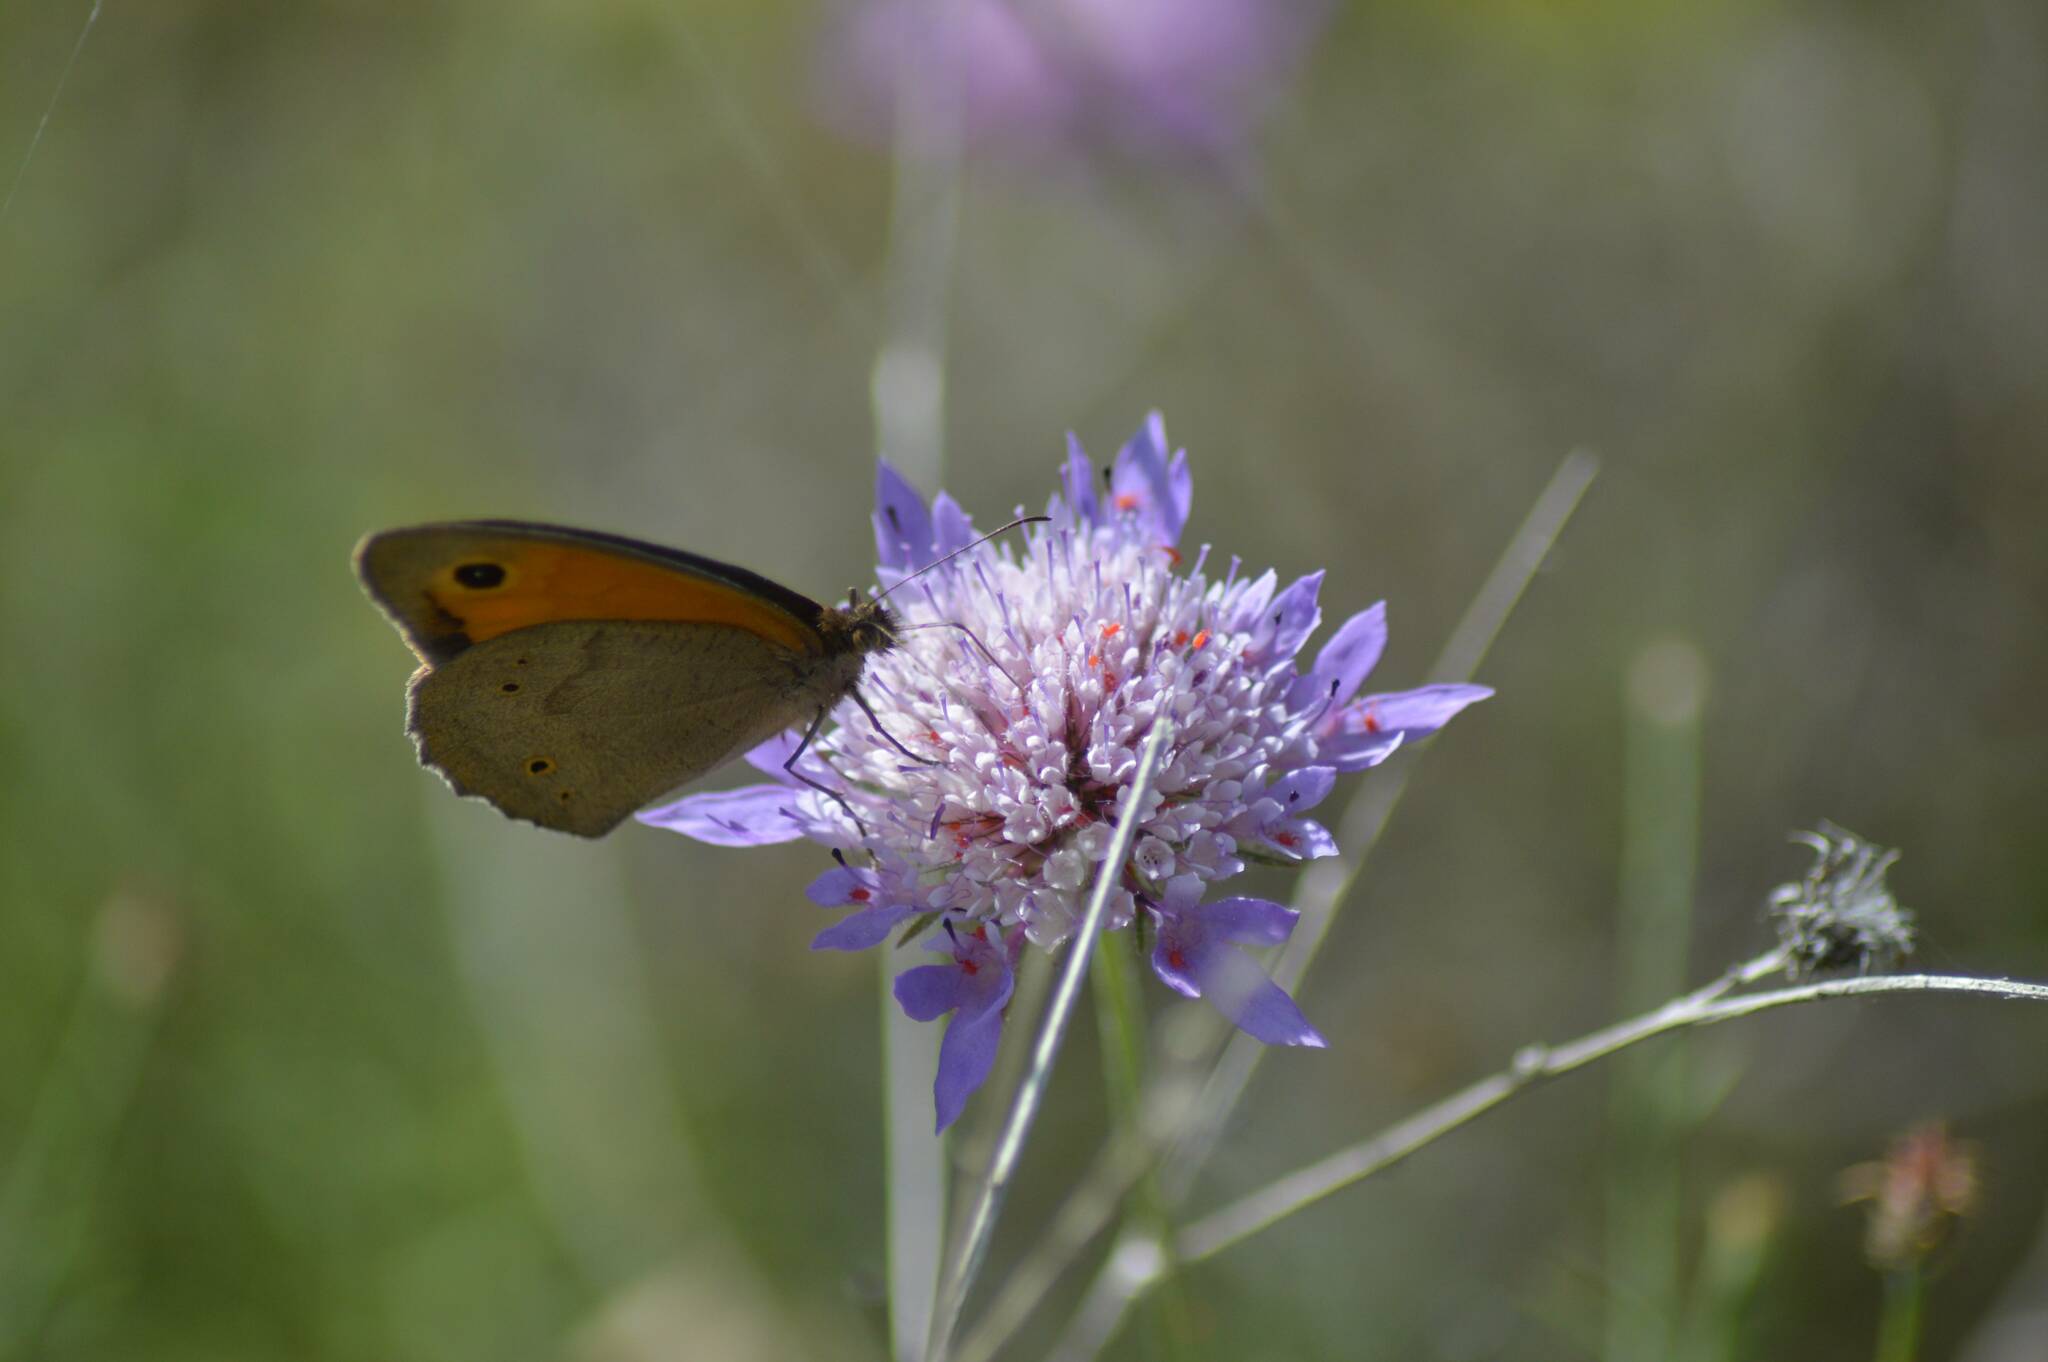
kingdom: Animalia
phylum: Arthropoda
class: Insecta
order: Lepidoptera
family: Nymphalidae
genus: Maniola
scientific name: Maniola jurtina
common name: Meadow brown
